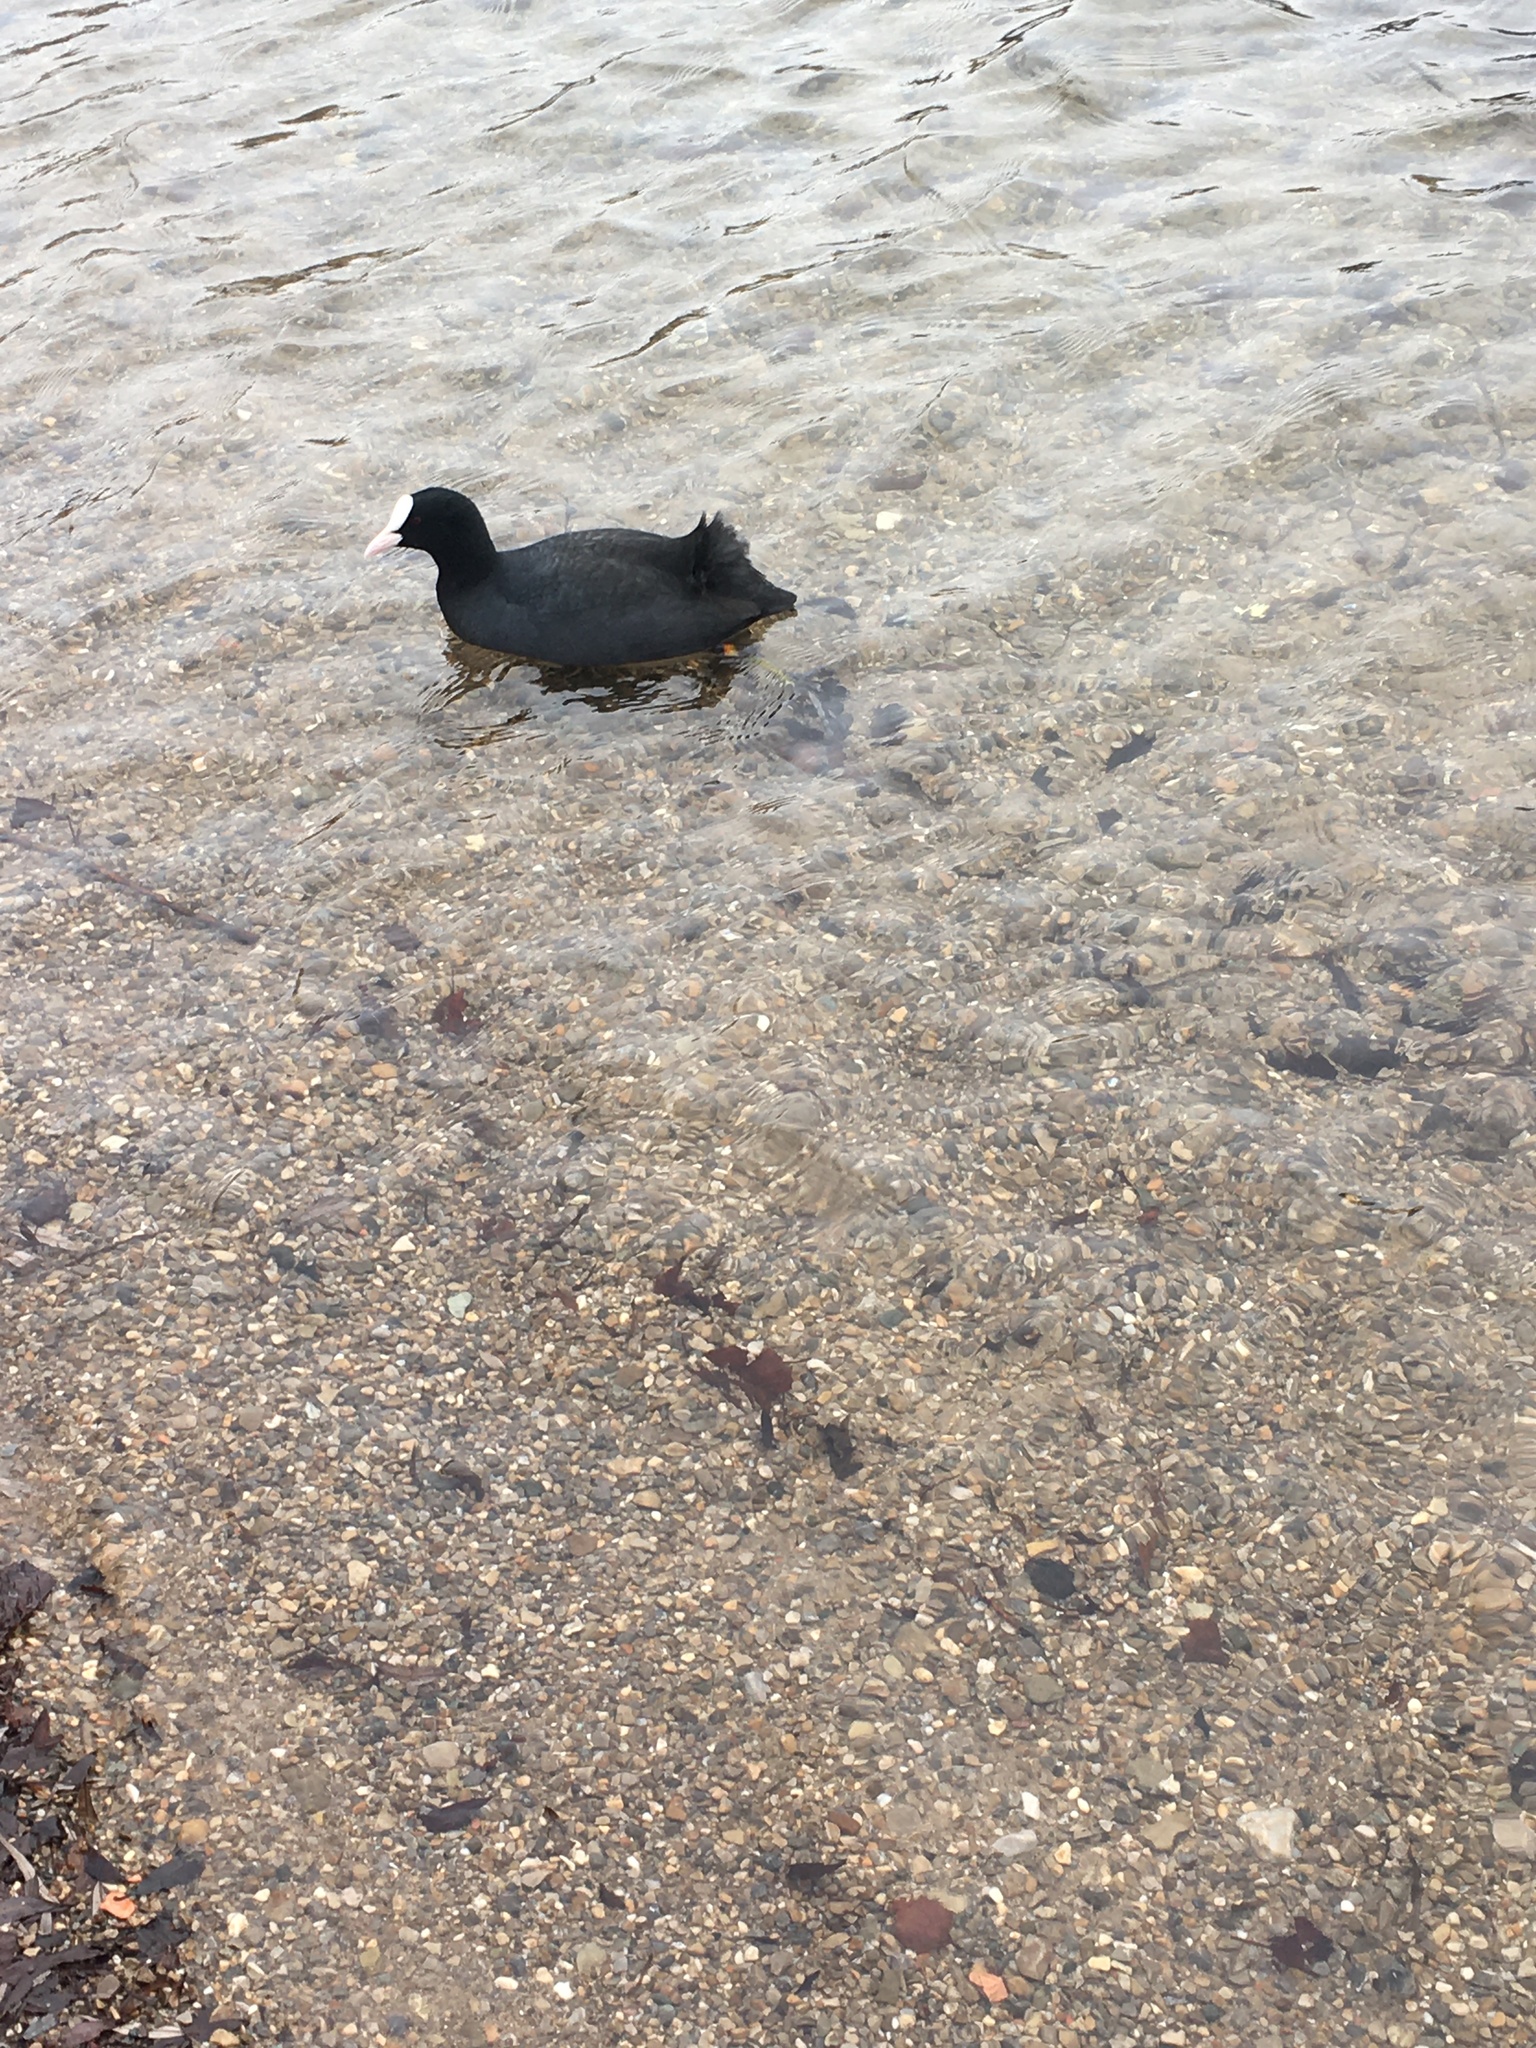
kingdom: Animalia
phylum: Chordata
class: Aves
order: Gruiformes
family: Rallidae
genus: Fulica
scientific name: Fulica atra
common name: Eurasian coot
